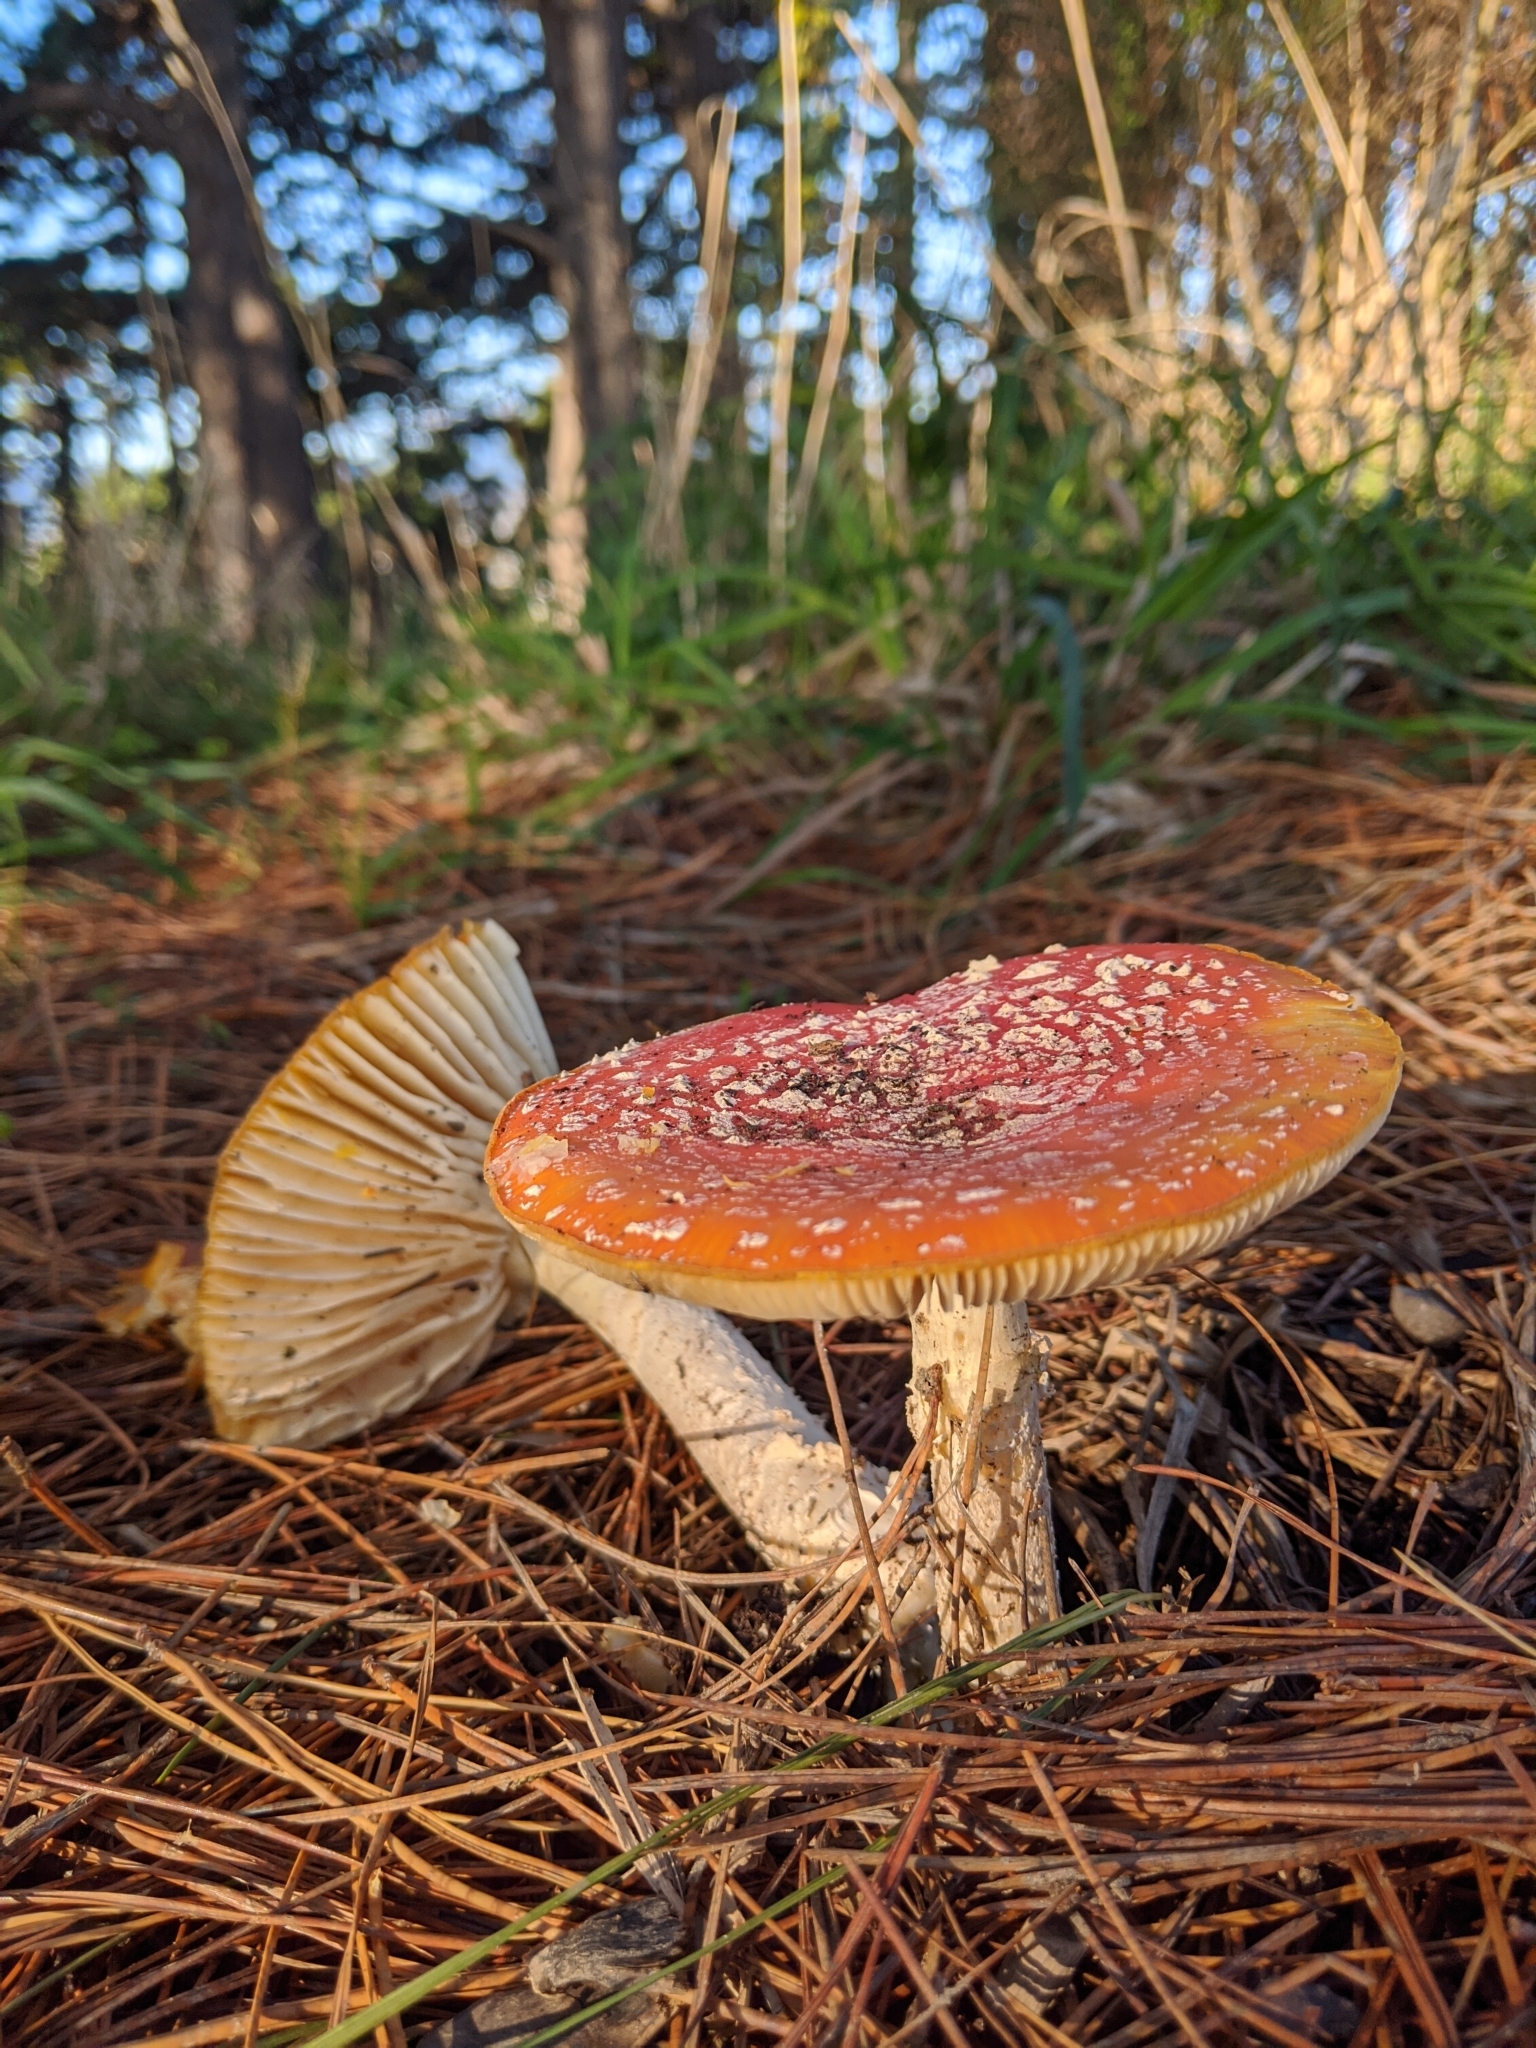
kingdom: Fungi
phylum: Basidiomycota
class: Agaricomycetes
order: Agaricales
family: Amanitaceae
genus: Amanita
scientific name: Amanita muscaria
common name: Fly agaric
